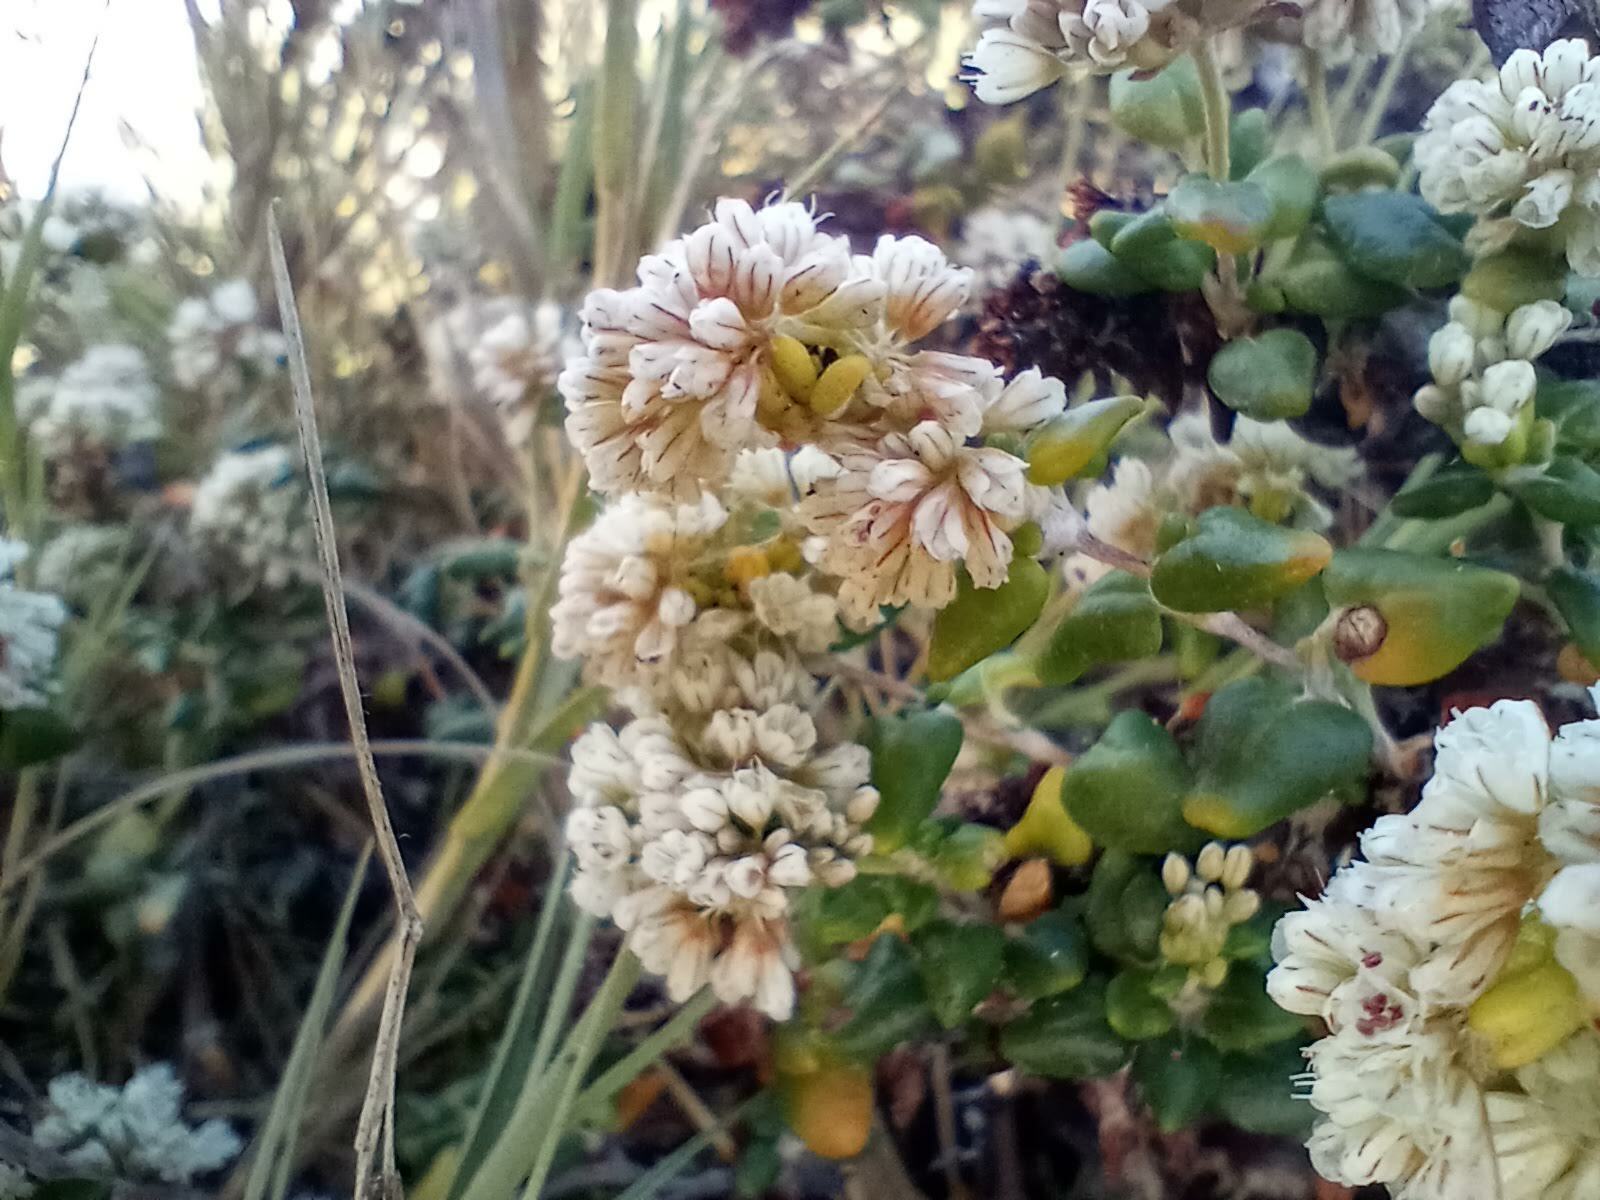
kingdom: Plantae
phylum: Tracheophyta
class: Magnoliopsida
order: Caryophyllales
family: Polygonaceae
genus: Eriogonum
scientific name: Eriogonum parvifolium
